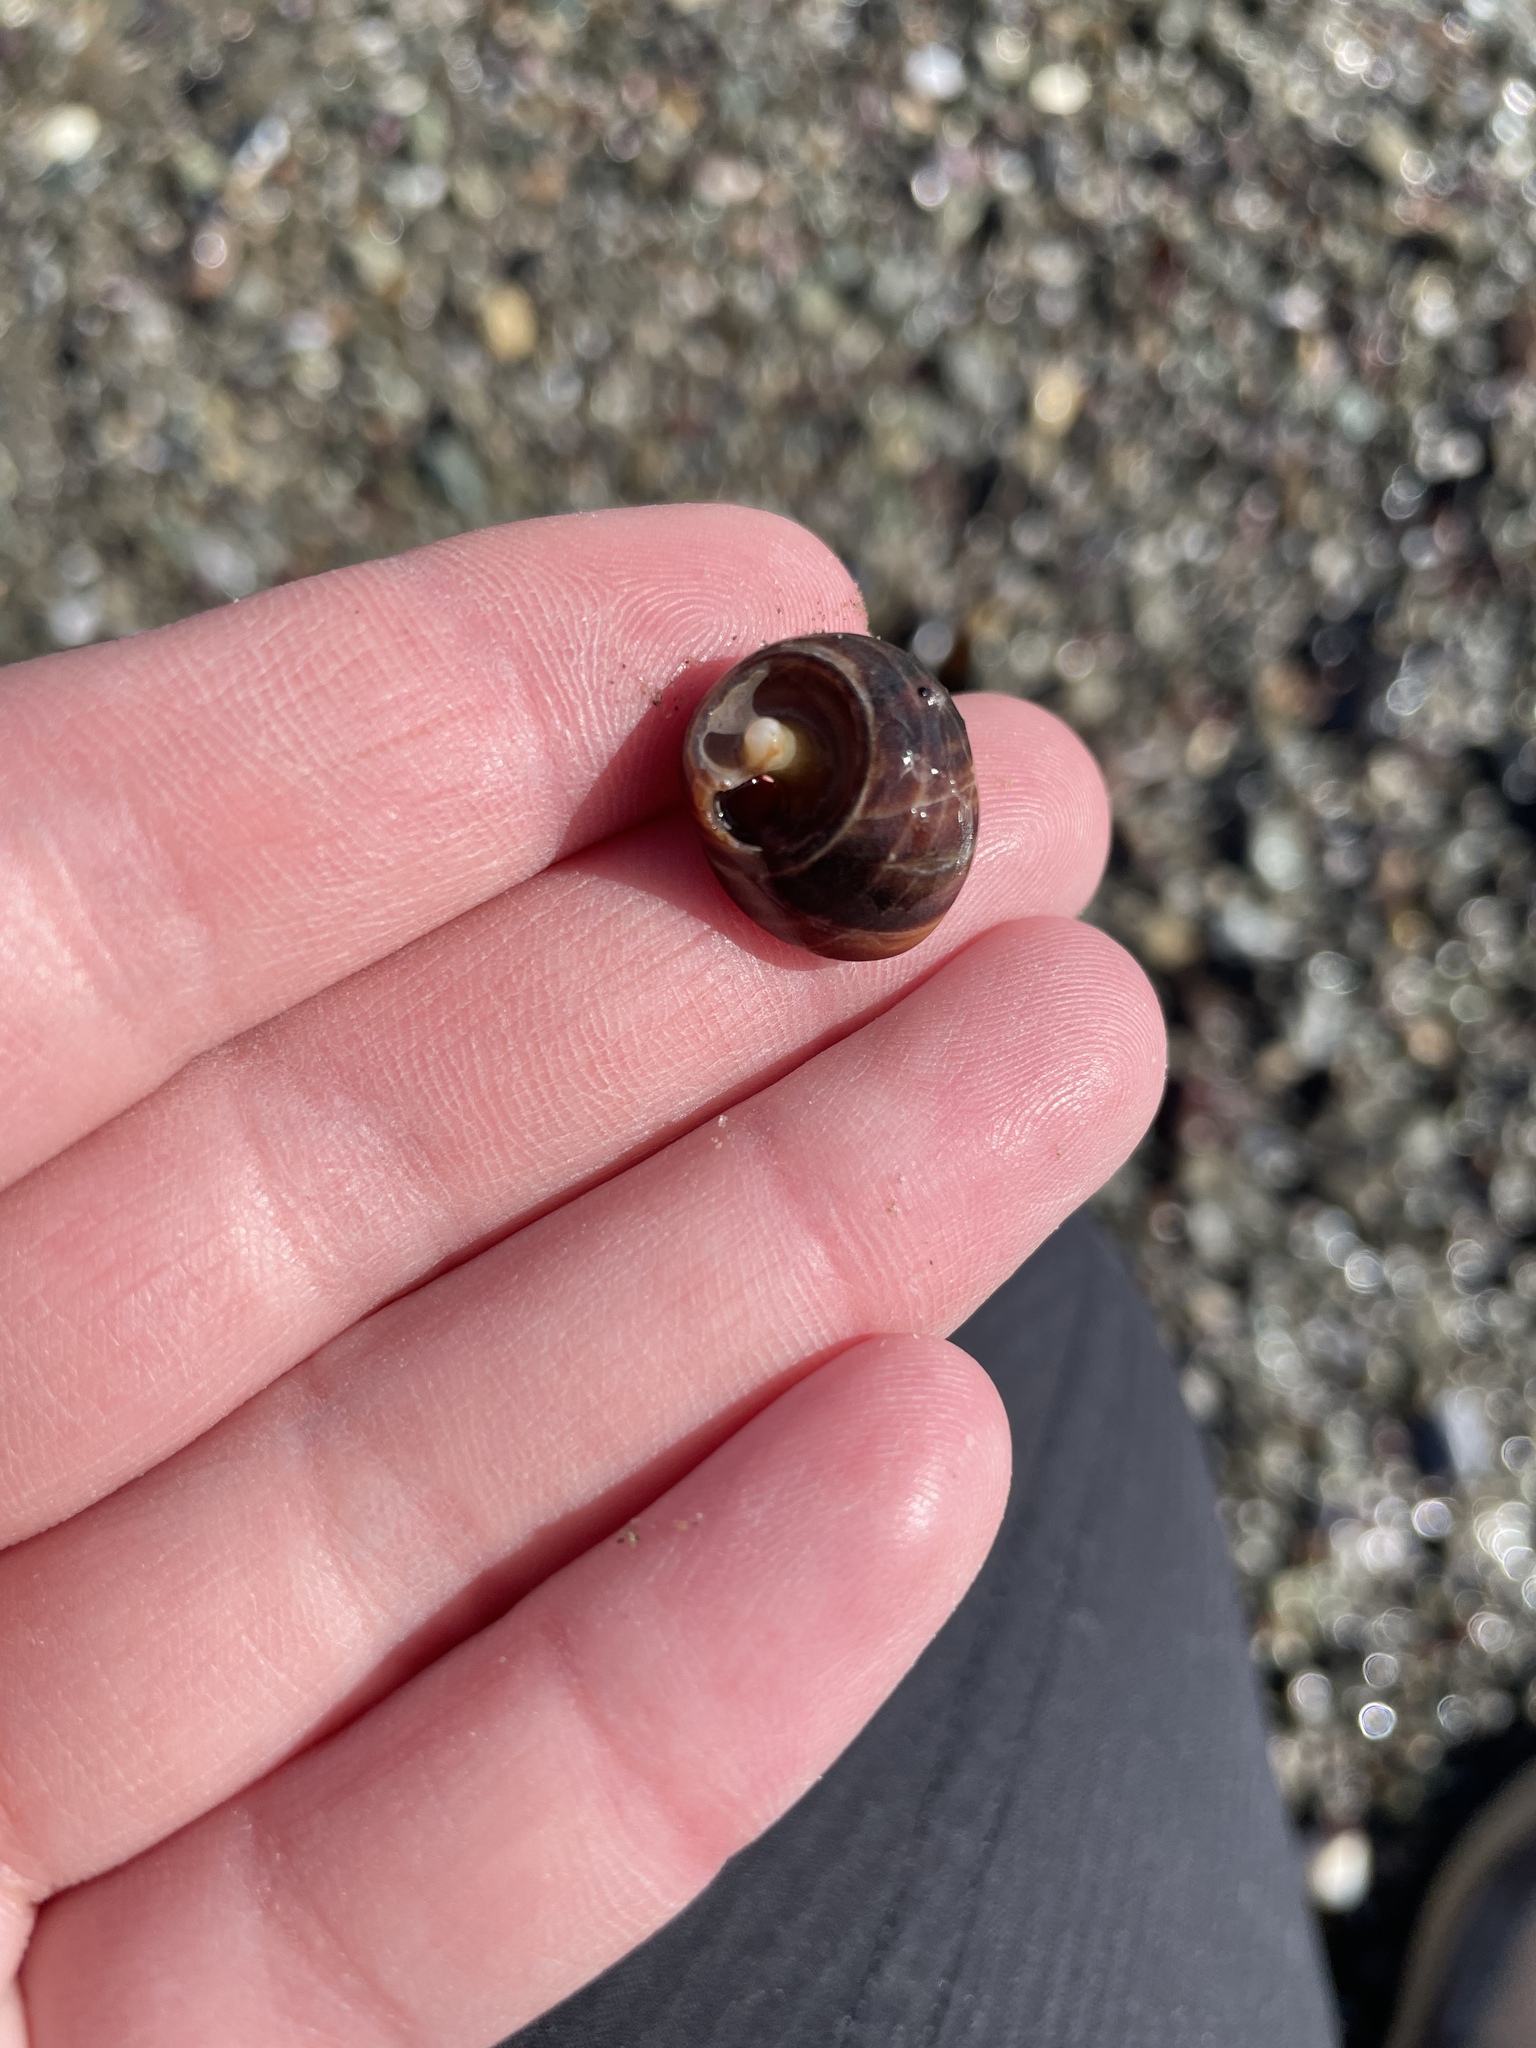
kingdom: Animalia
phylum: Mollusca
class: Gastropoda
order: Littorinimorpha
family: Littorinidae
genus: Littorina
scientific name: Littorina littorea
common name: Common periwinkle
